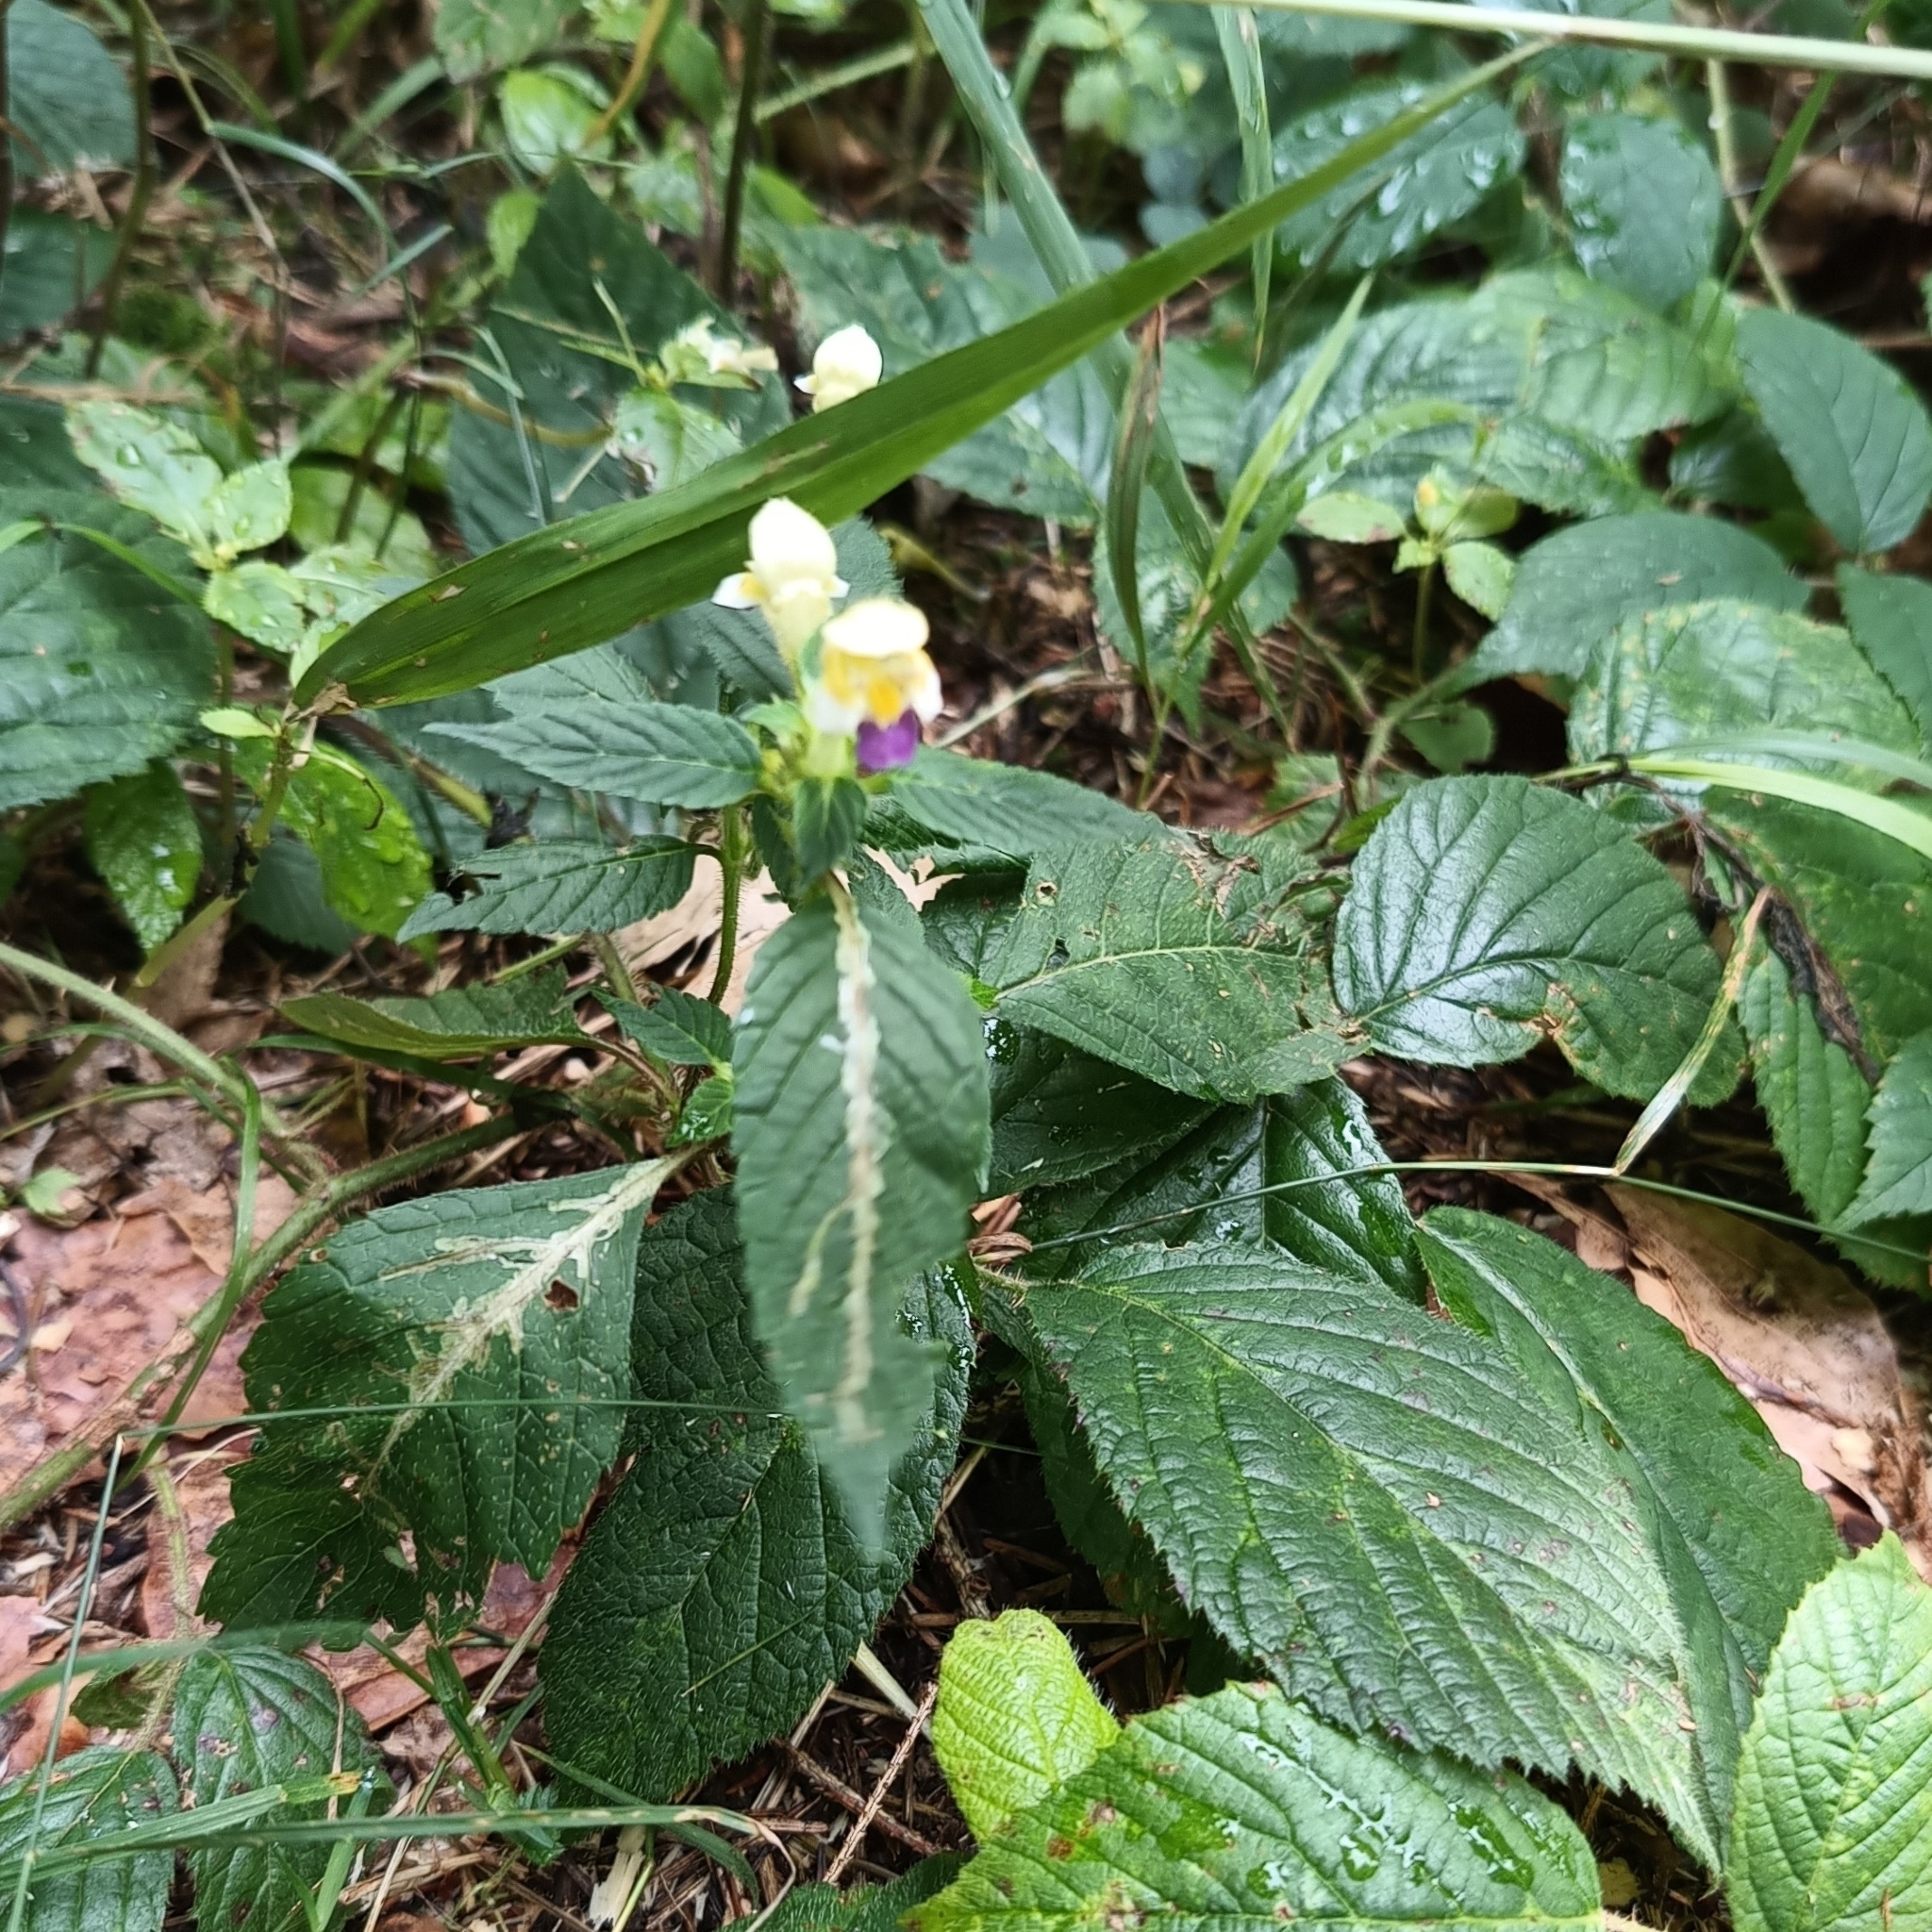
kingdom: Plantae
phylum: Tracheophyta
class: Magnoliopsida
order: Lamiales
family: Lamiaceae
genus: Galeopsis
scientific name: Galeopsis speciosa
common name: Large-flowered hemp-nettle
